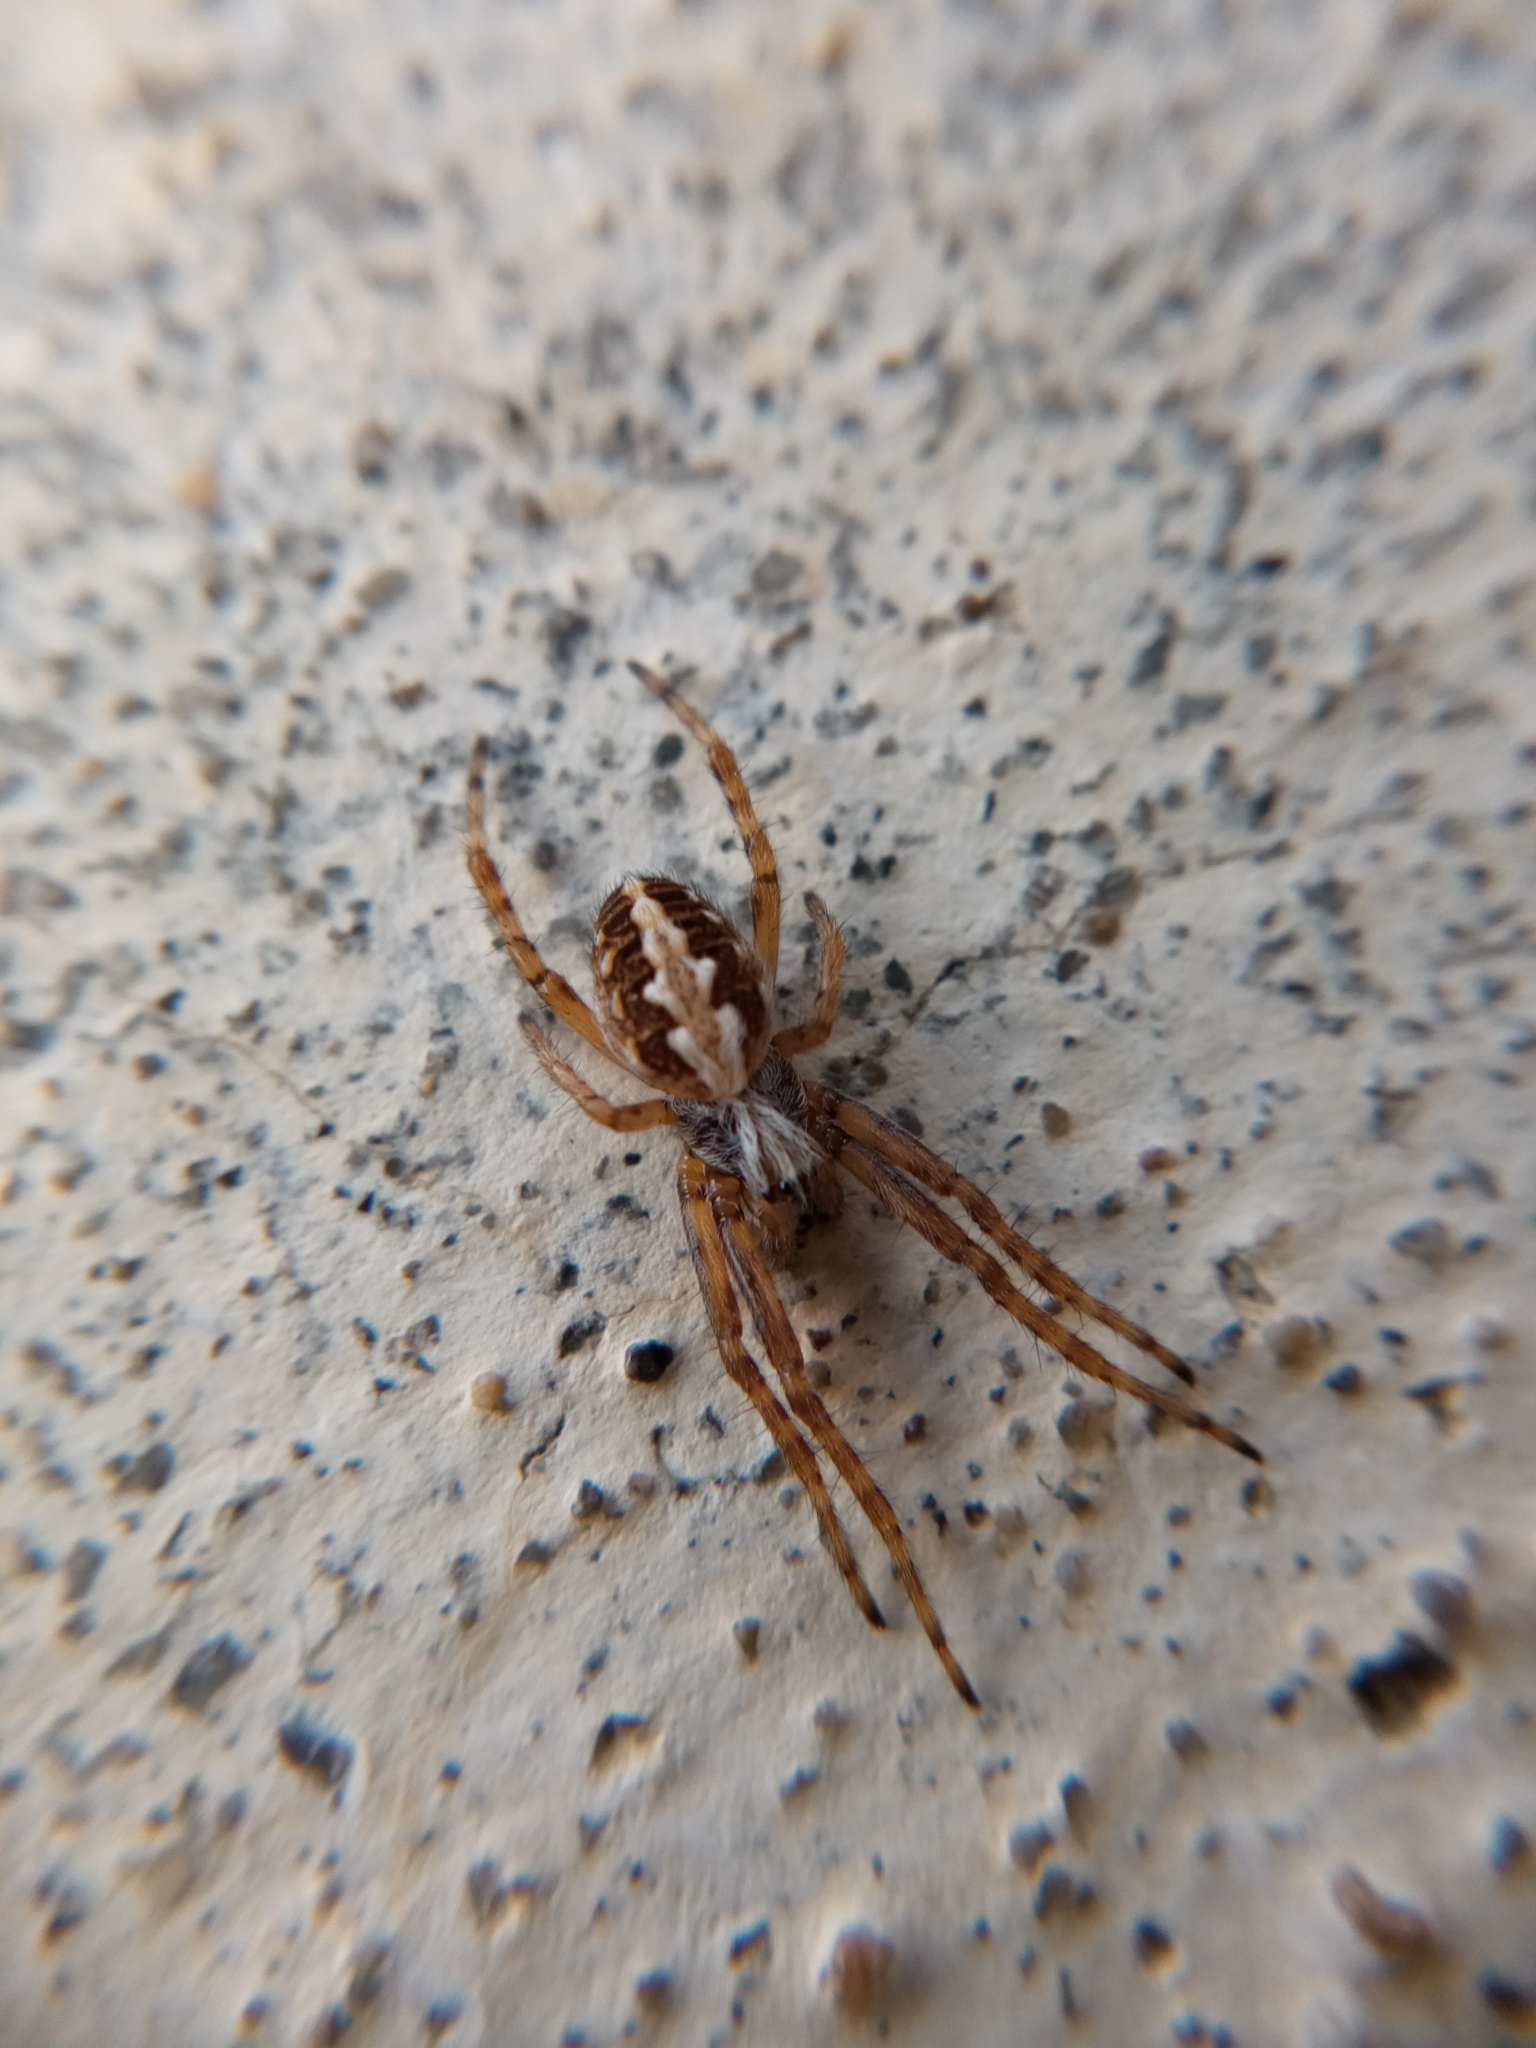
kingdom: Animalia
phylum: Arthropoda
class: Arachnida
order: Araneae
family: Araneidae
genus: Aculepeira
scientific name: Aculepeira armida
